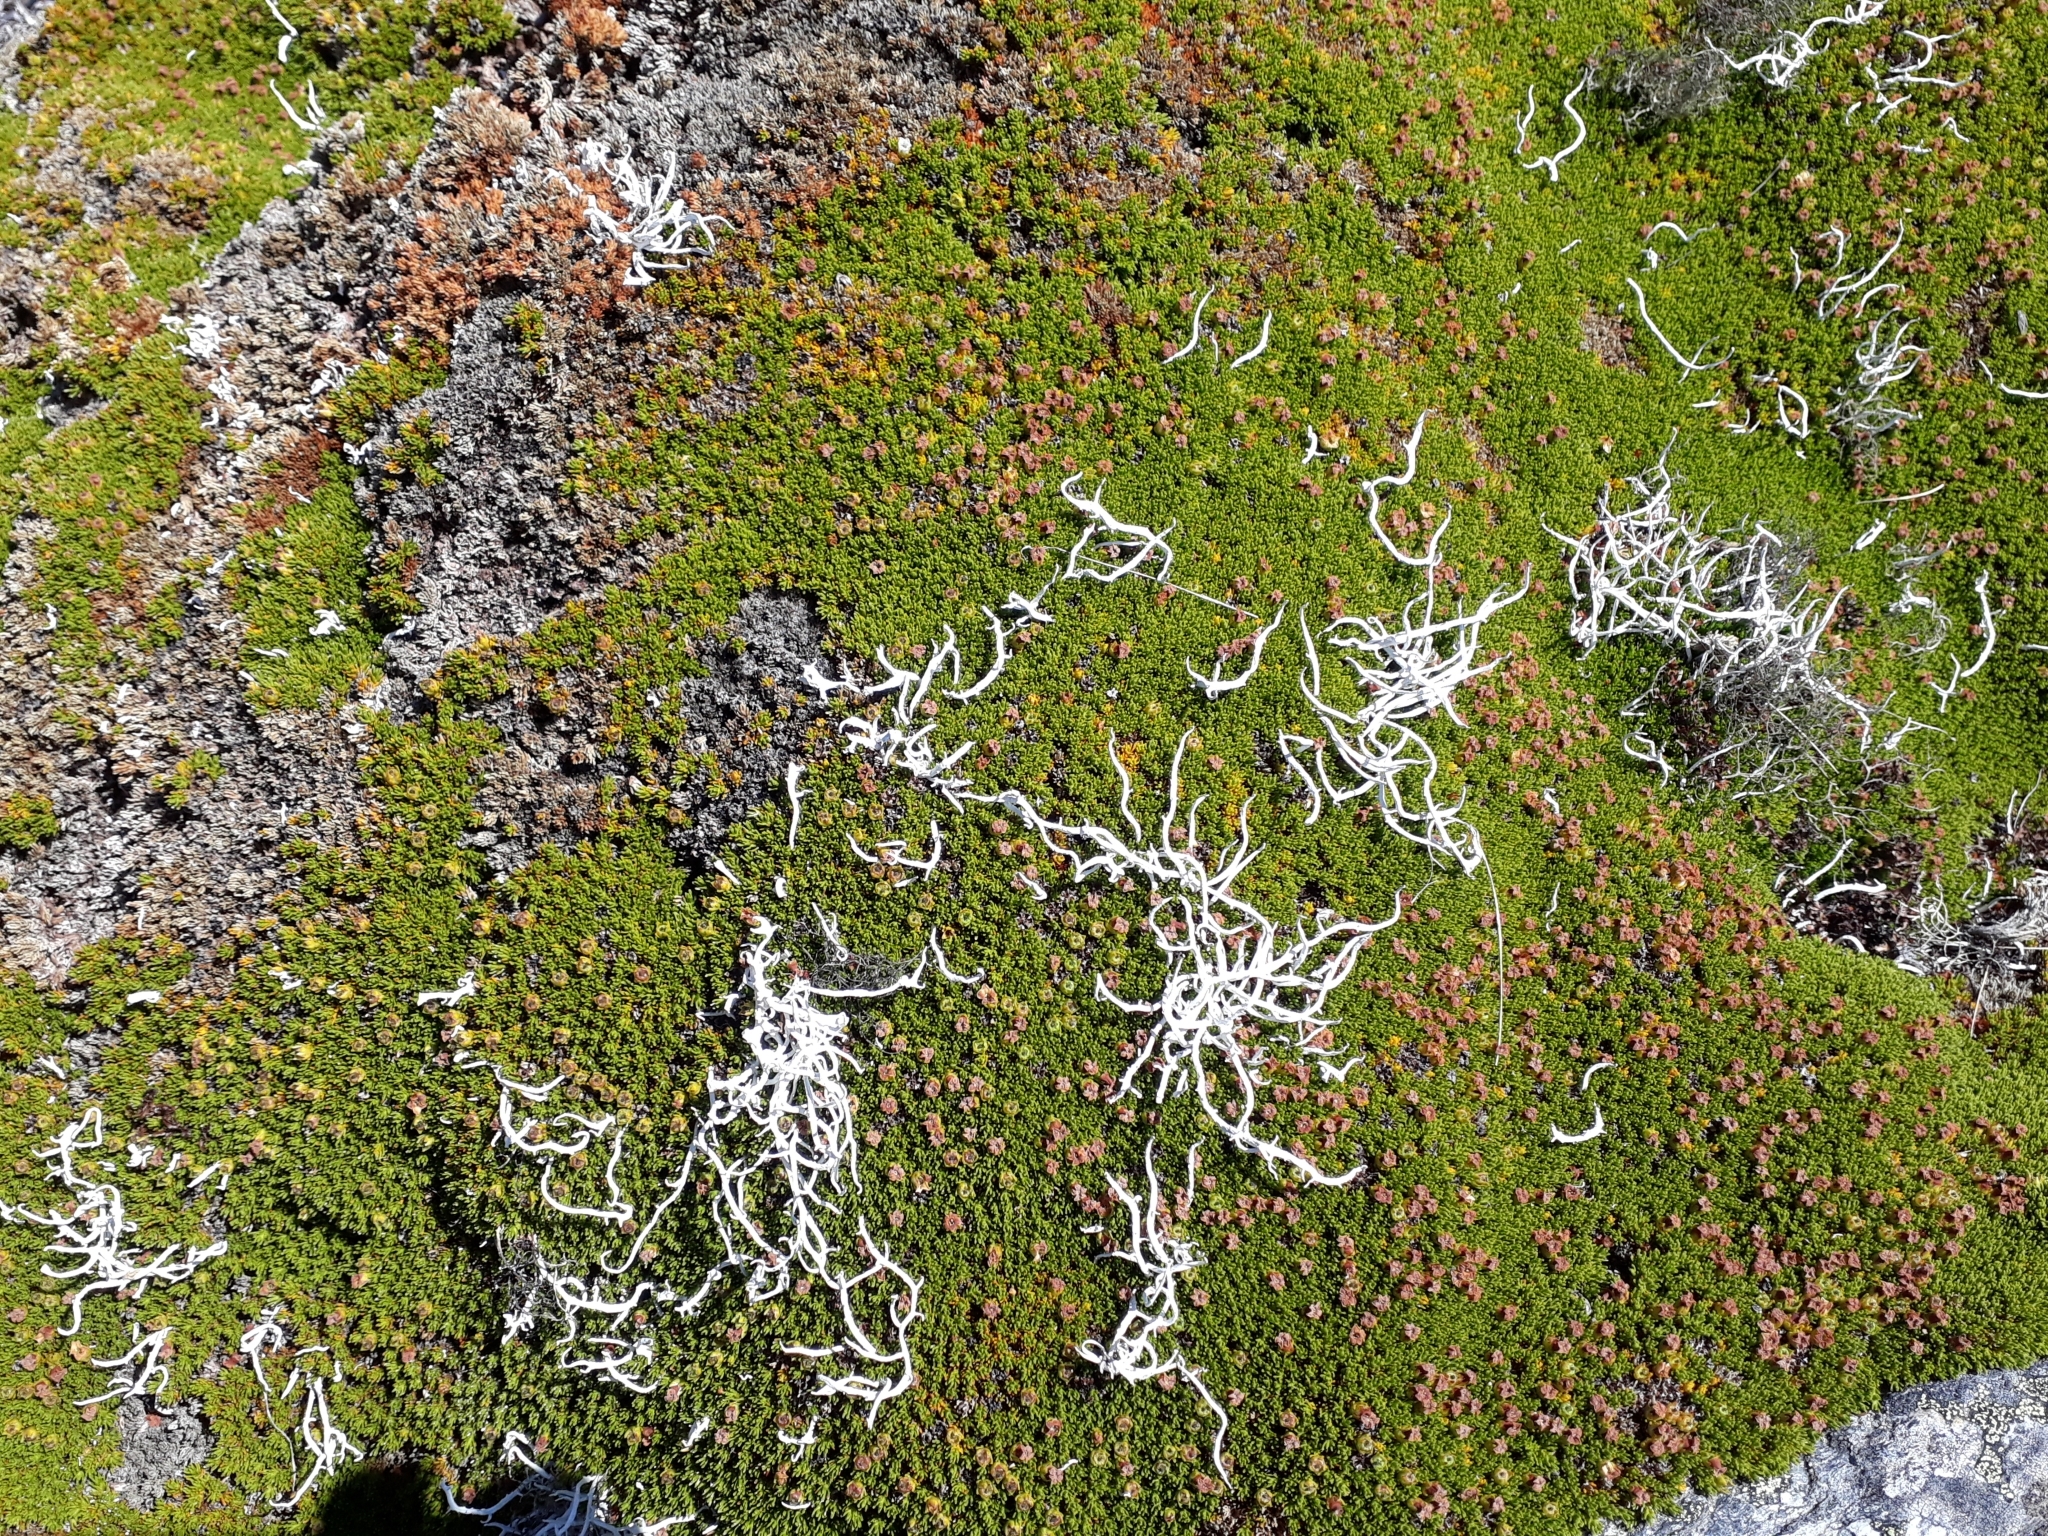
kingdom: Fungi
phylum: Ascomycota
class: Lecanoromycetes
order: Pertusariales
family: Icmadophilaceae
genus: Thamnolia
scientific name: Thamnolia vermicularis
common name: Whiteworm lichen
